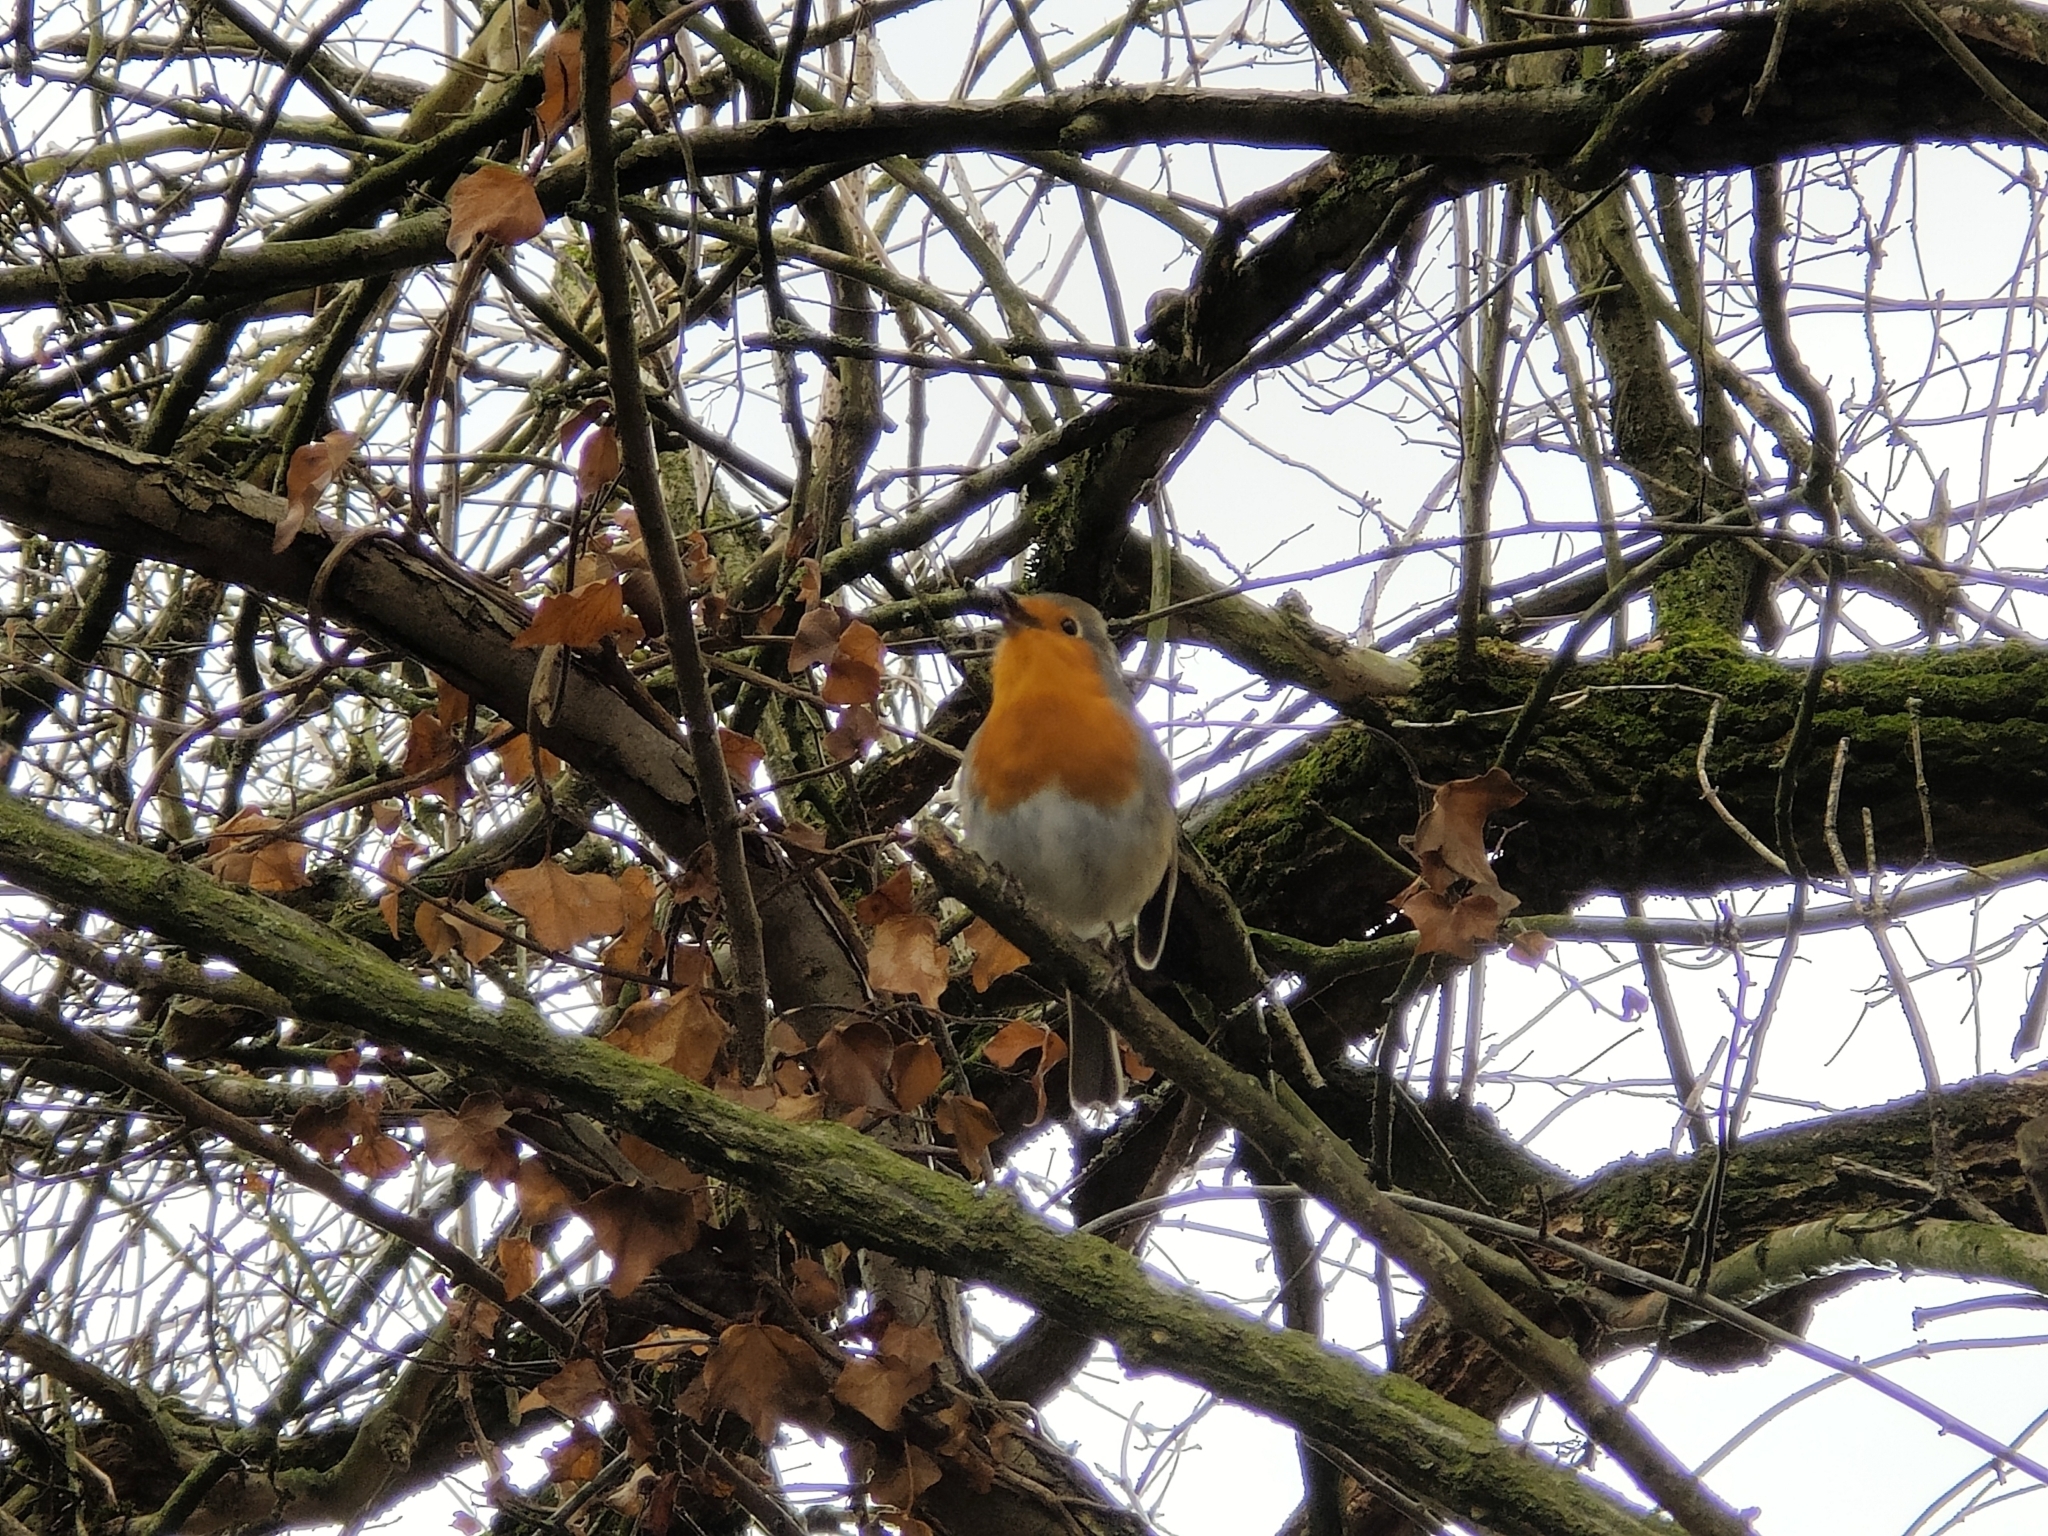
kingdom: Animalia
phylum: Chordata
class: Aves
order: Passeriformes
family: Muscicapidae
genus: Erithacus
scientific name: Erithacus rubecula
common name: European robin
